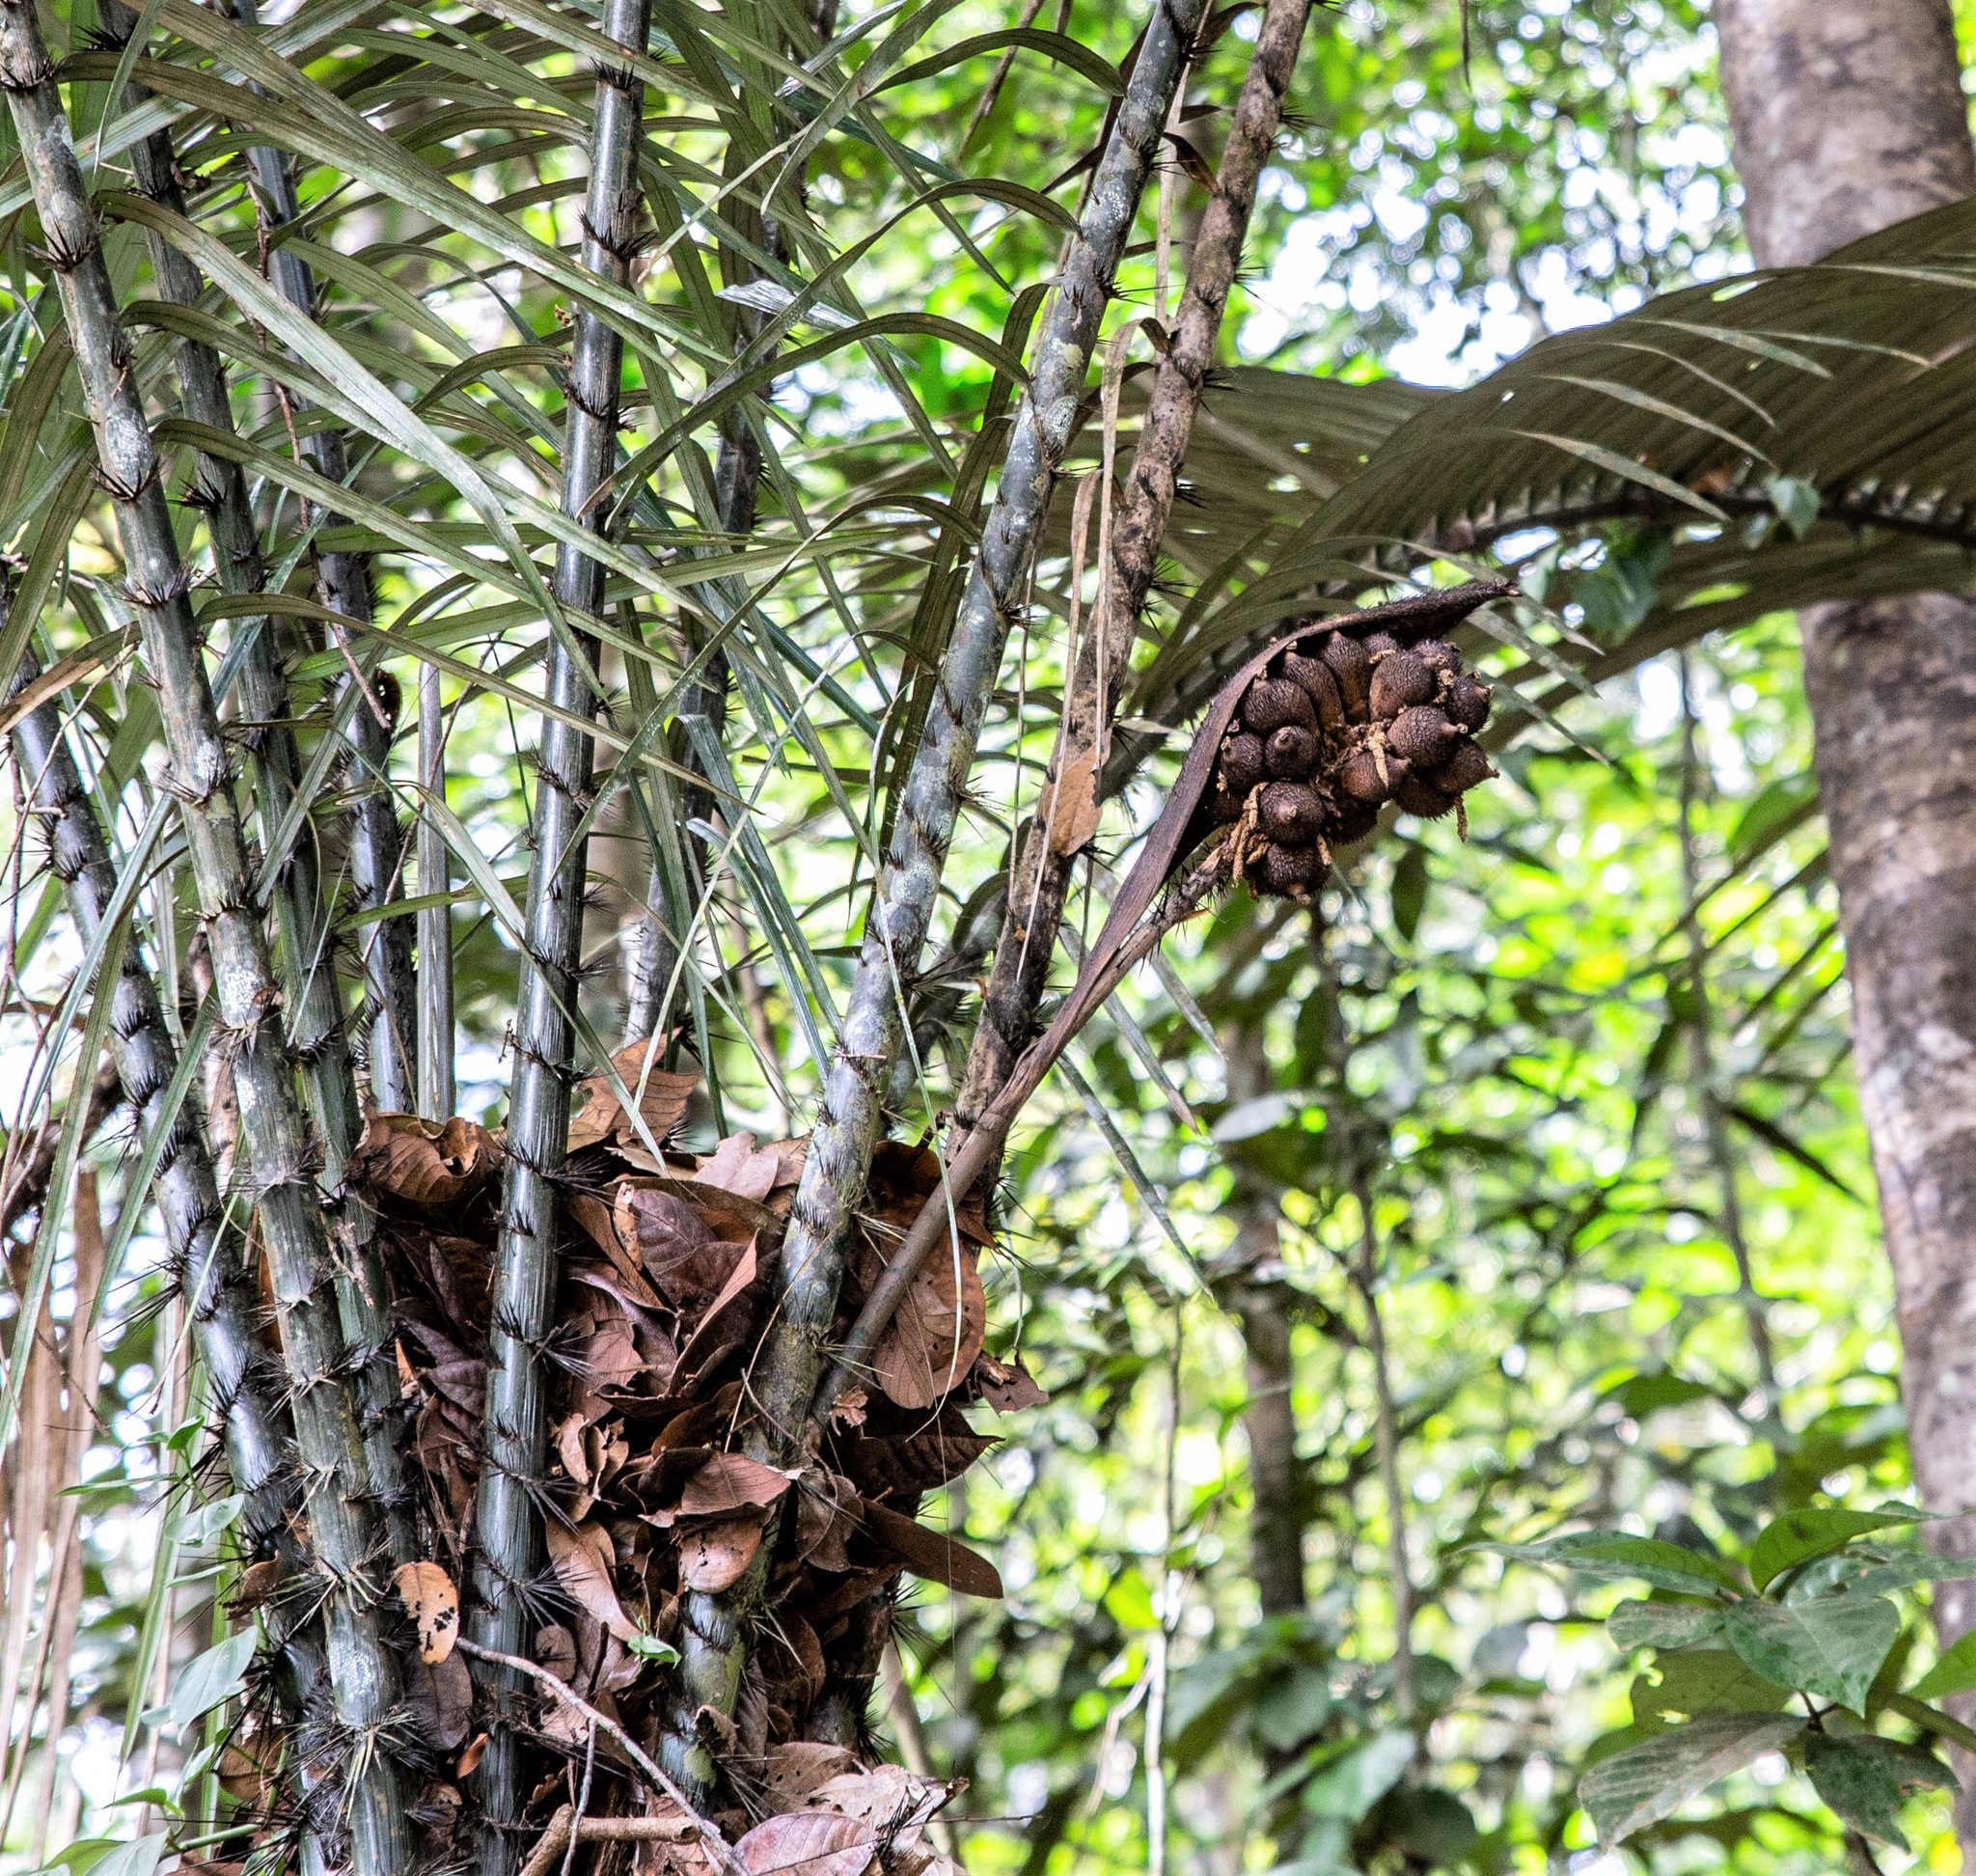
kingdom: Plantae
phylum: Tracheophyta
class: Liliopsida
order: Arecales
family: Arecaceae
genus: Astrocaryum
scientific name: Astrocaryum sciophilum
